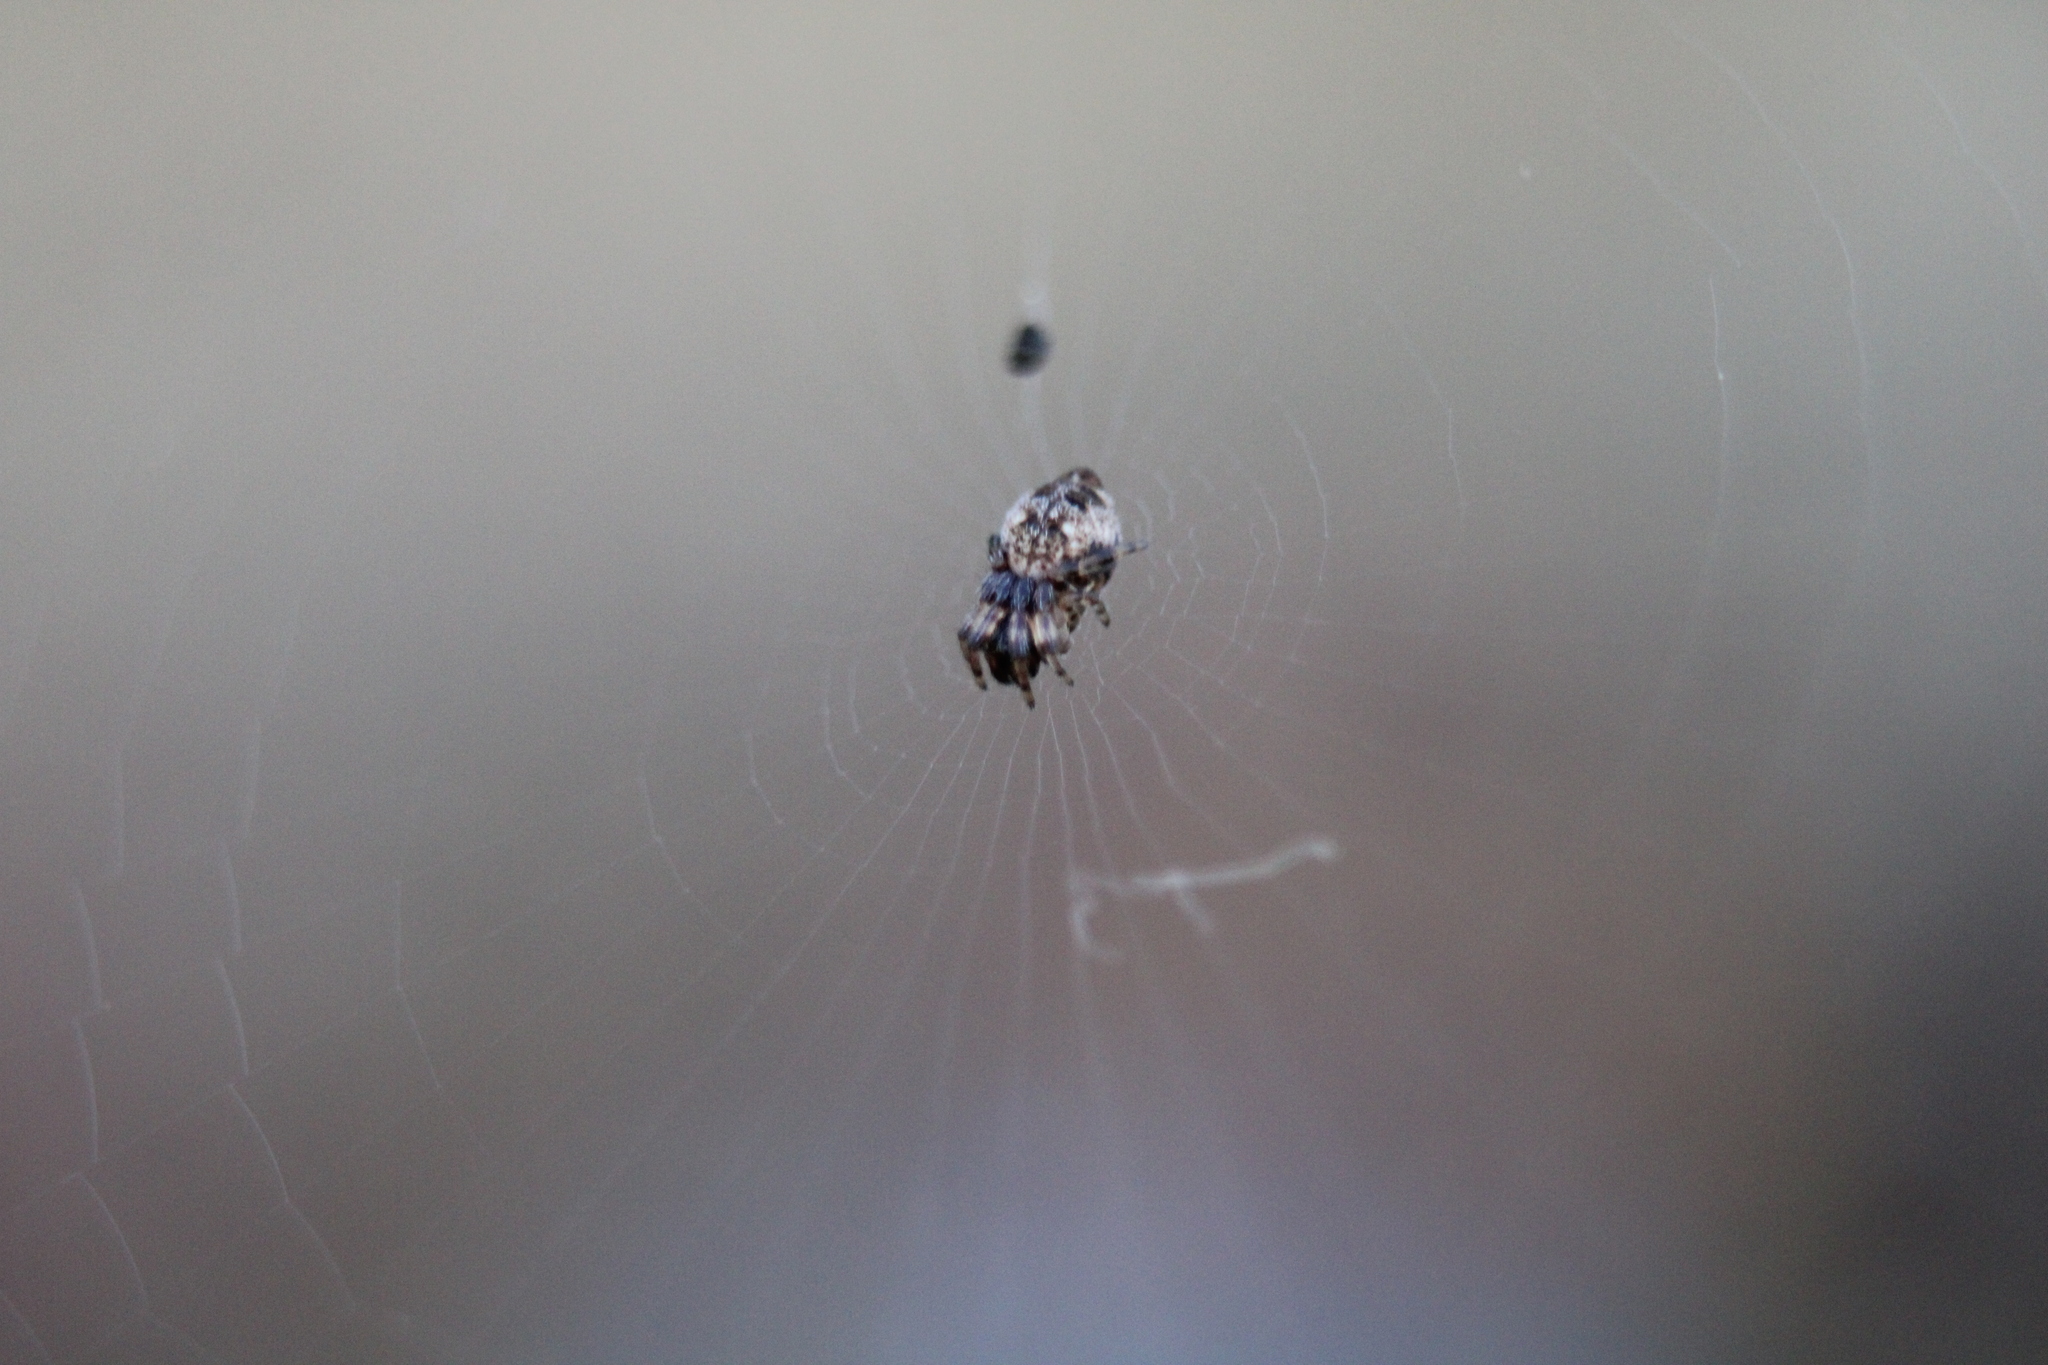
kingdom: Animalia
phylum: Arthropoda
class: Arachnida
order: Araneae
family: Araneidae
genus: Cyclosa
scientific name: Cyclosa turbinata
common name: Orb weavers
